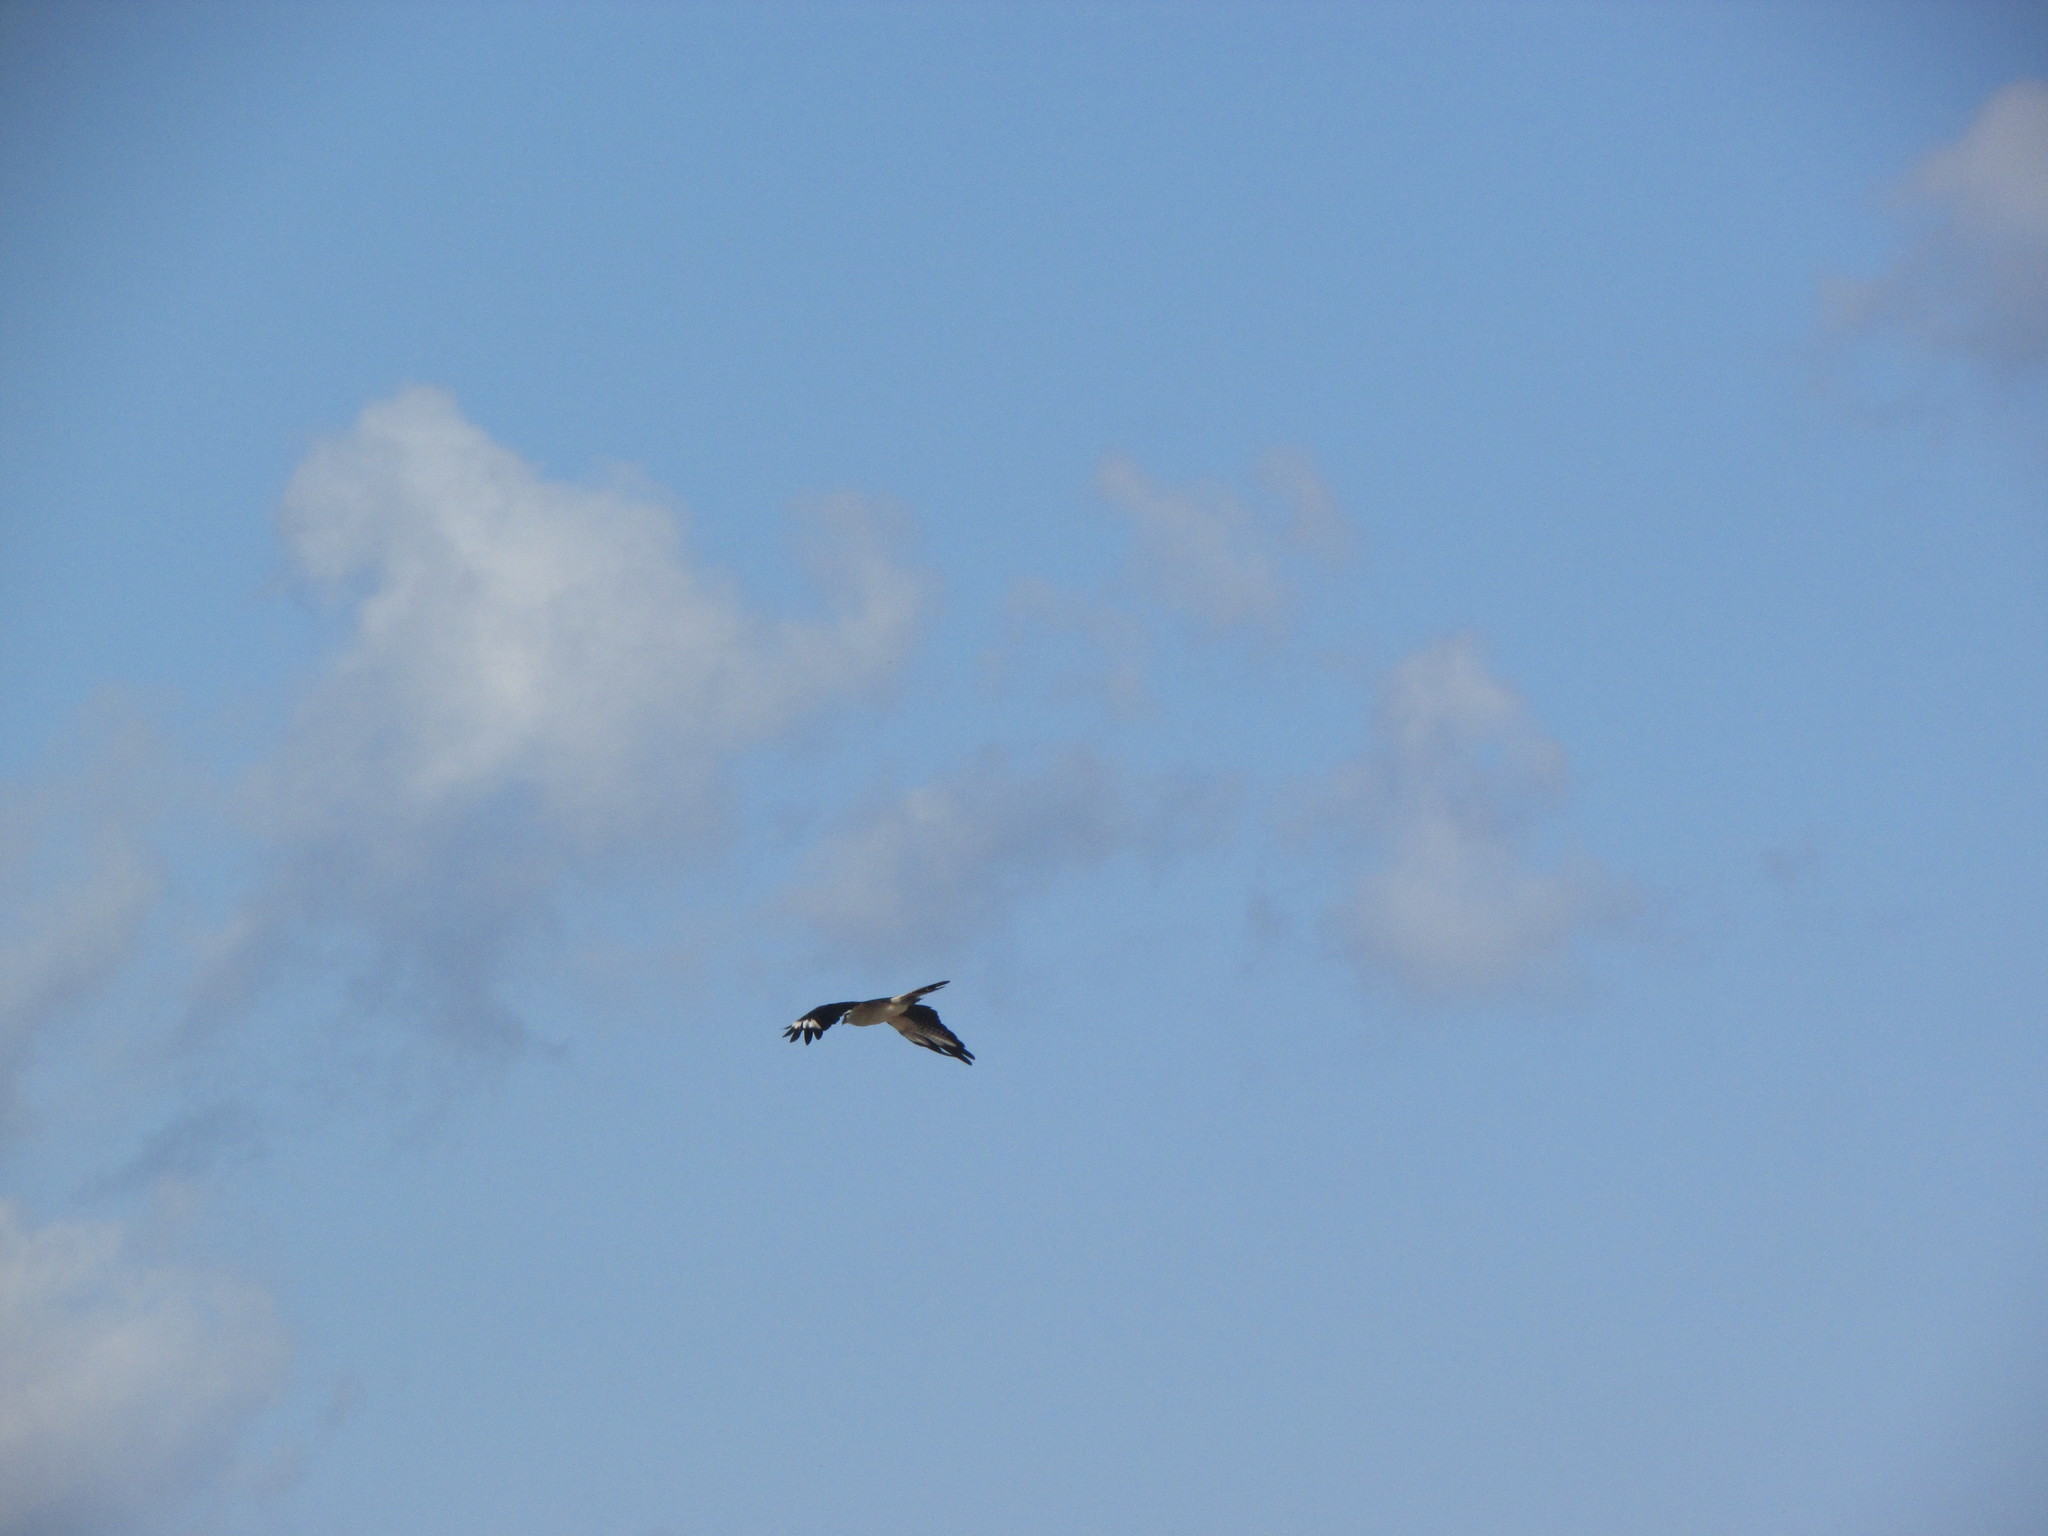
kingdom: Animalia
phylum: Chordata
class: Aves
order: Accipitriformes
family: Pandionidae
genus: Pandion
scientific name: Pandion haliaetus
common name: Osprey
